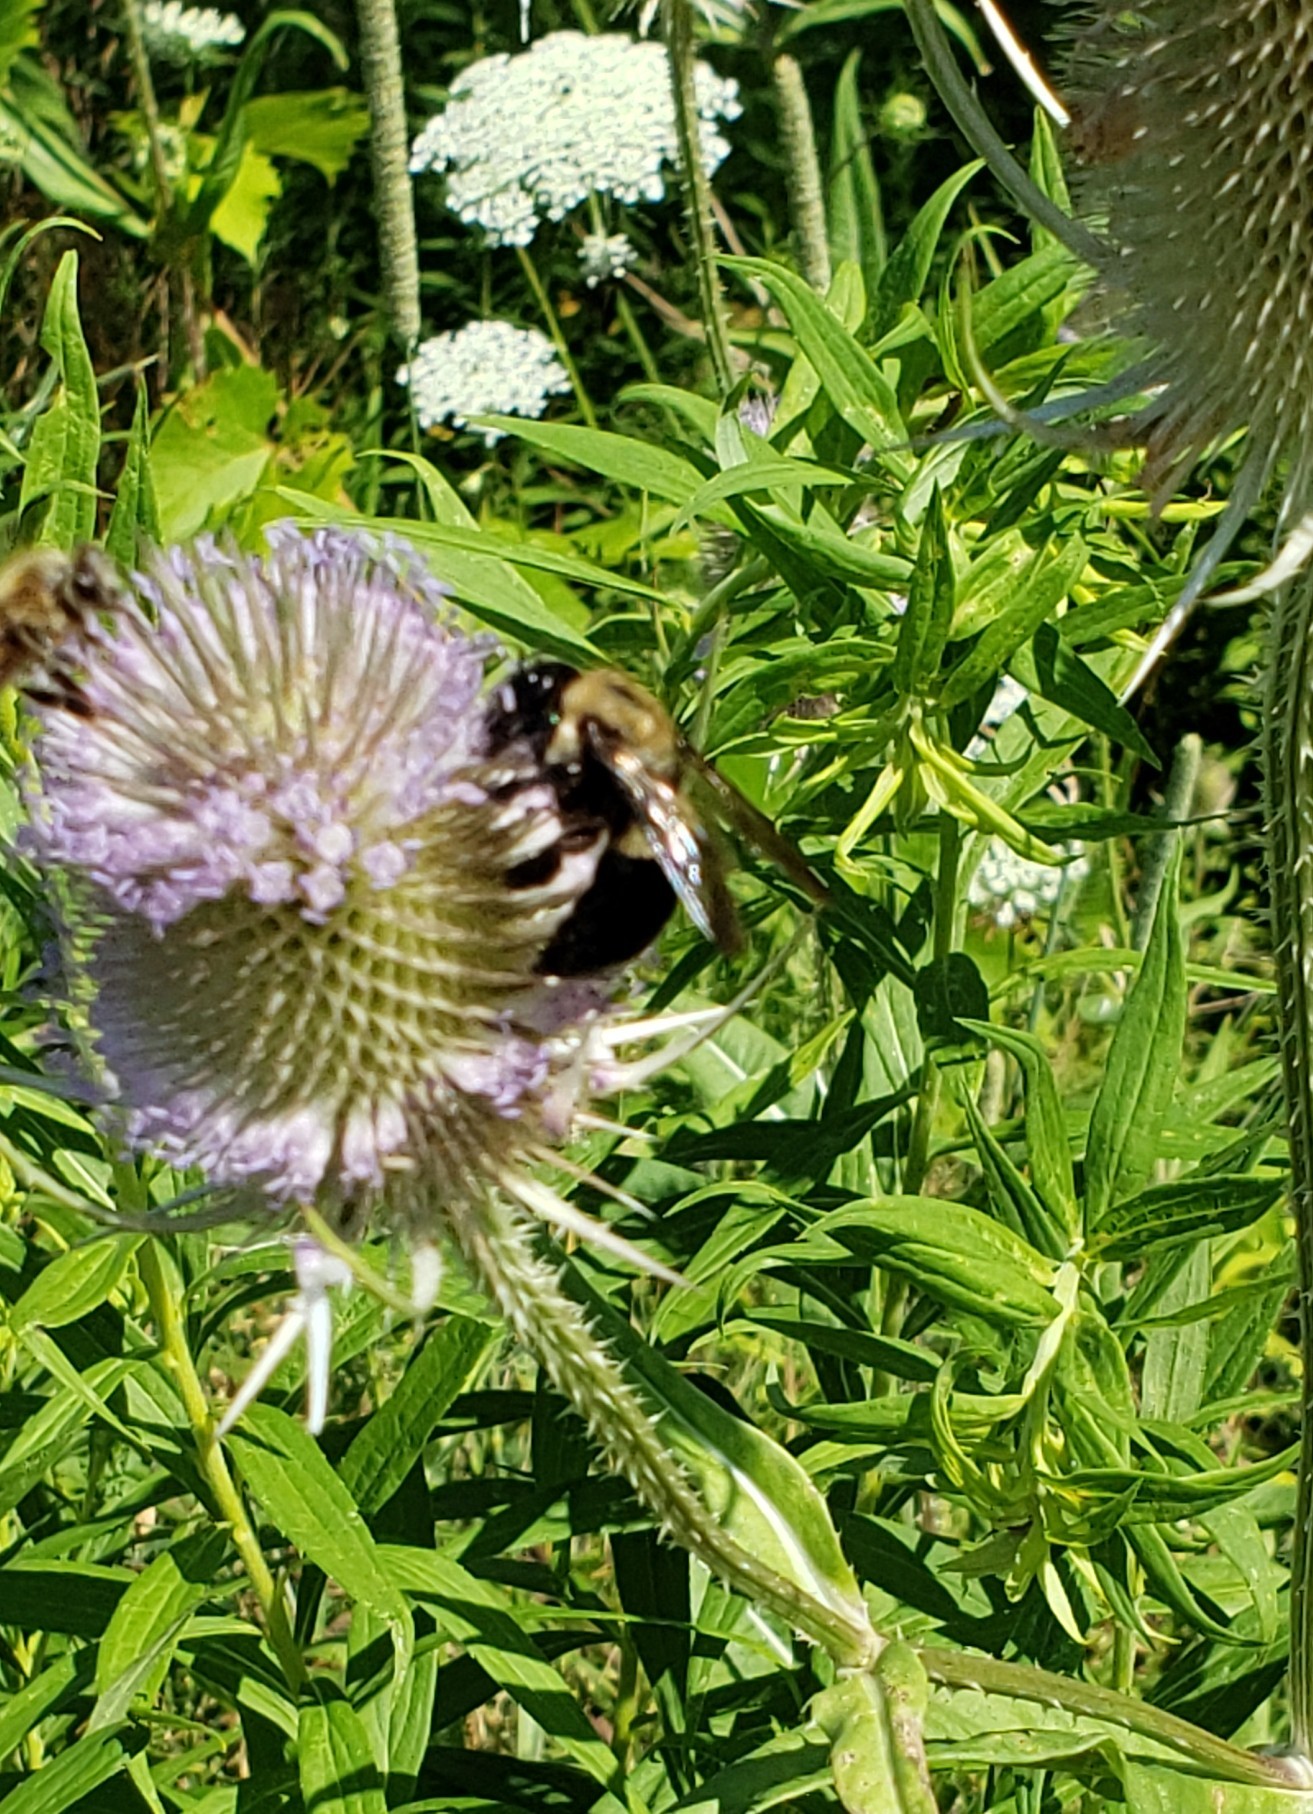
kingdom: Animalia
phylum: Arthropoda
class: Insecta
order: Hymenoptera
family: Apidae
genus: Xylocopa
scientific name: Xylocopa virginica
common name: Carpenter bee
